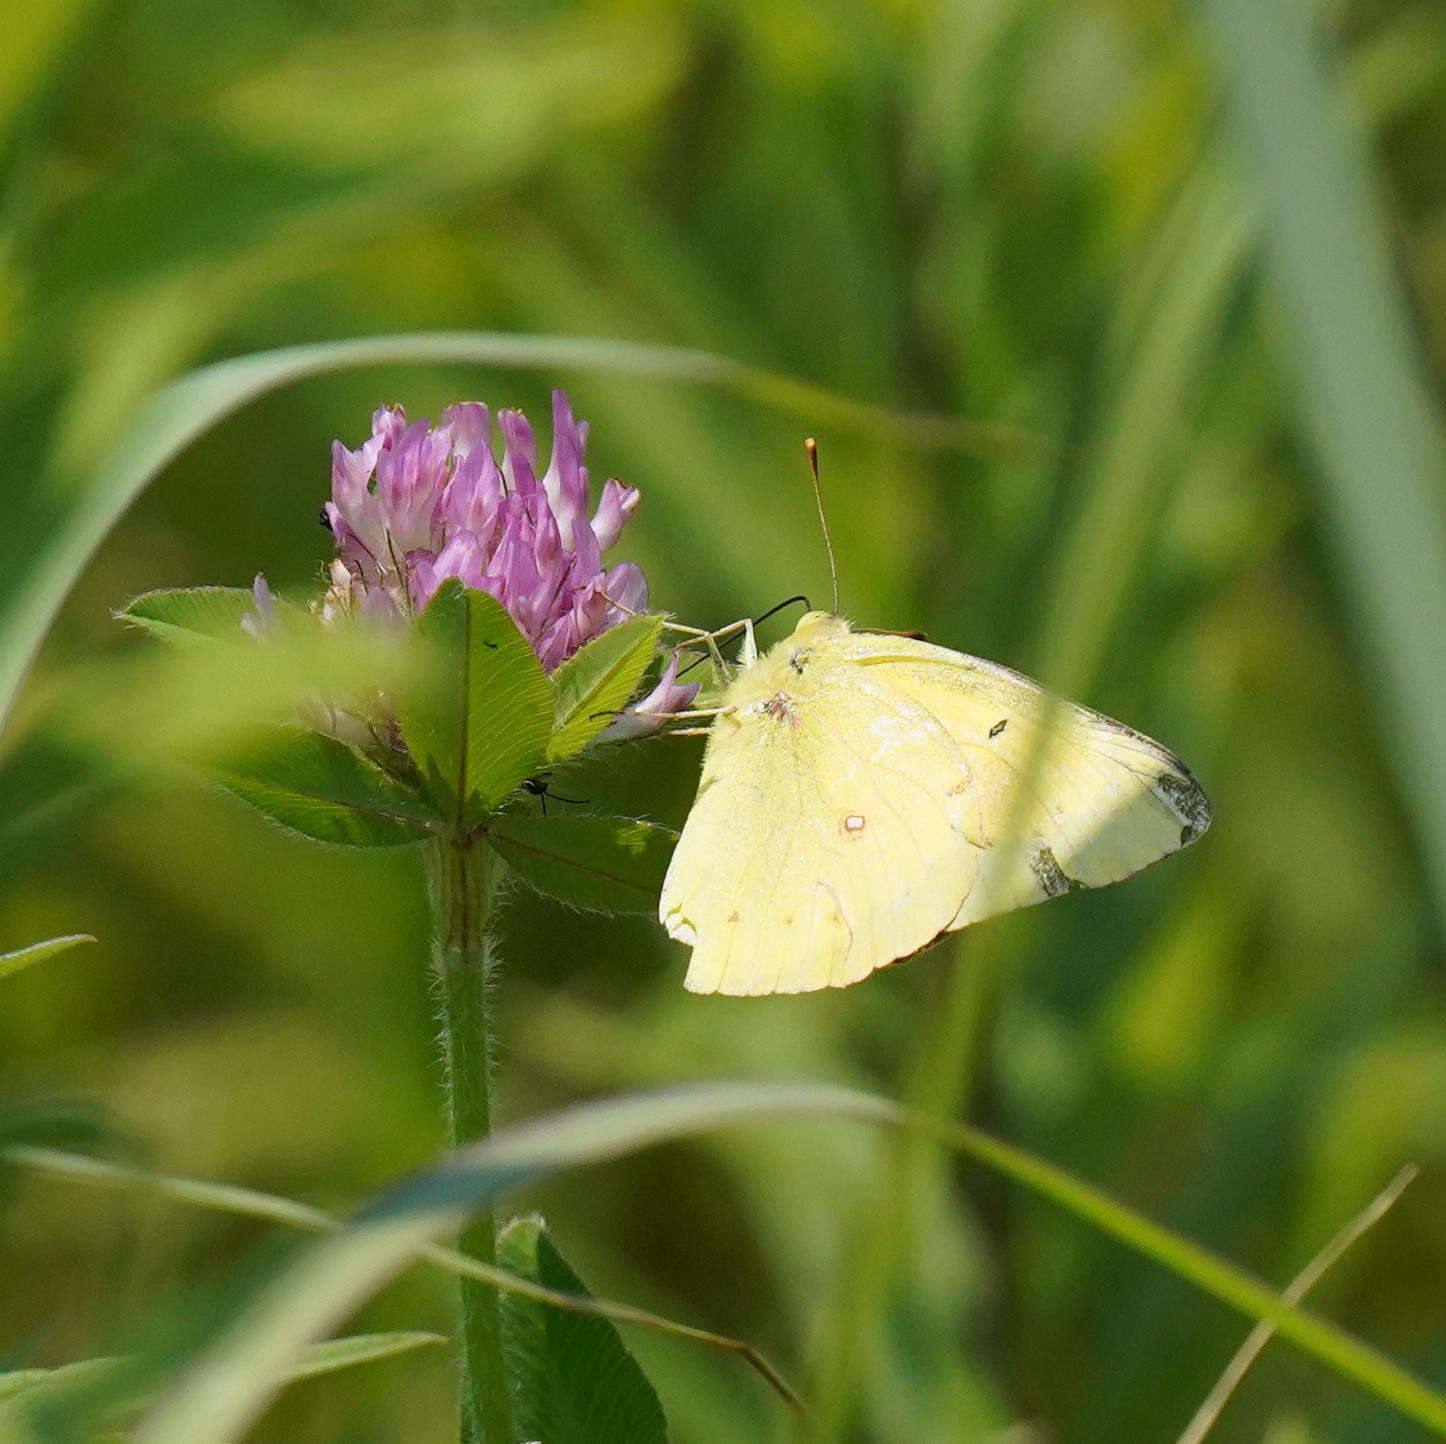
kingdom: Animalia
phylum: Arthropoda
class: Insecta
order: Lepidoptera
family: Pieridae
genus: Colias
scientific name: Colias eurytheme
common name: Alfalfa butterfly
